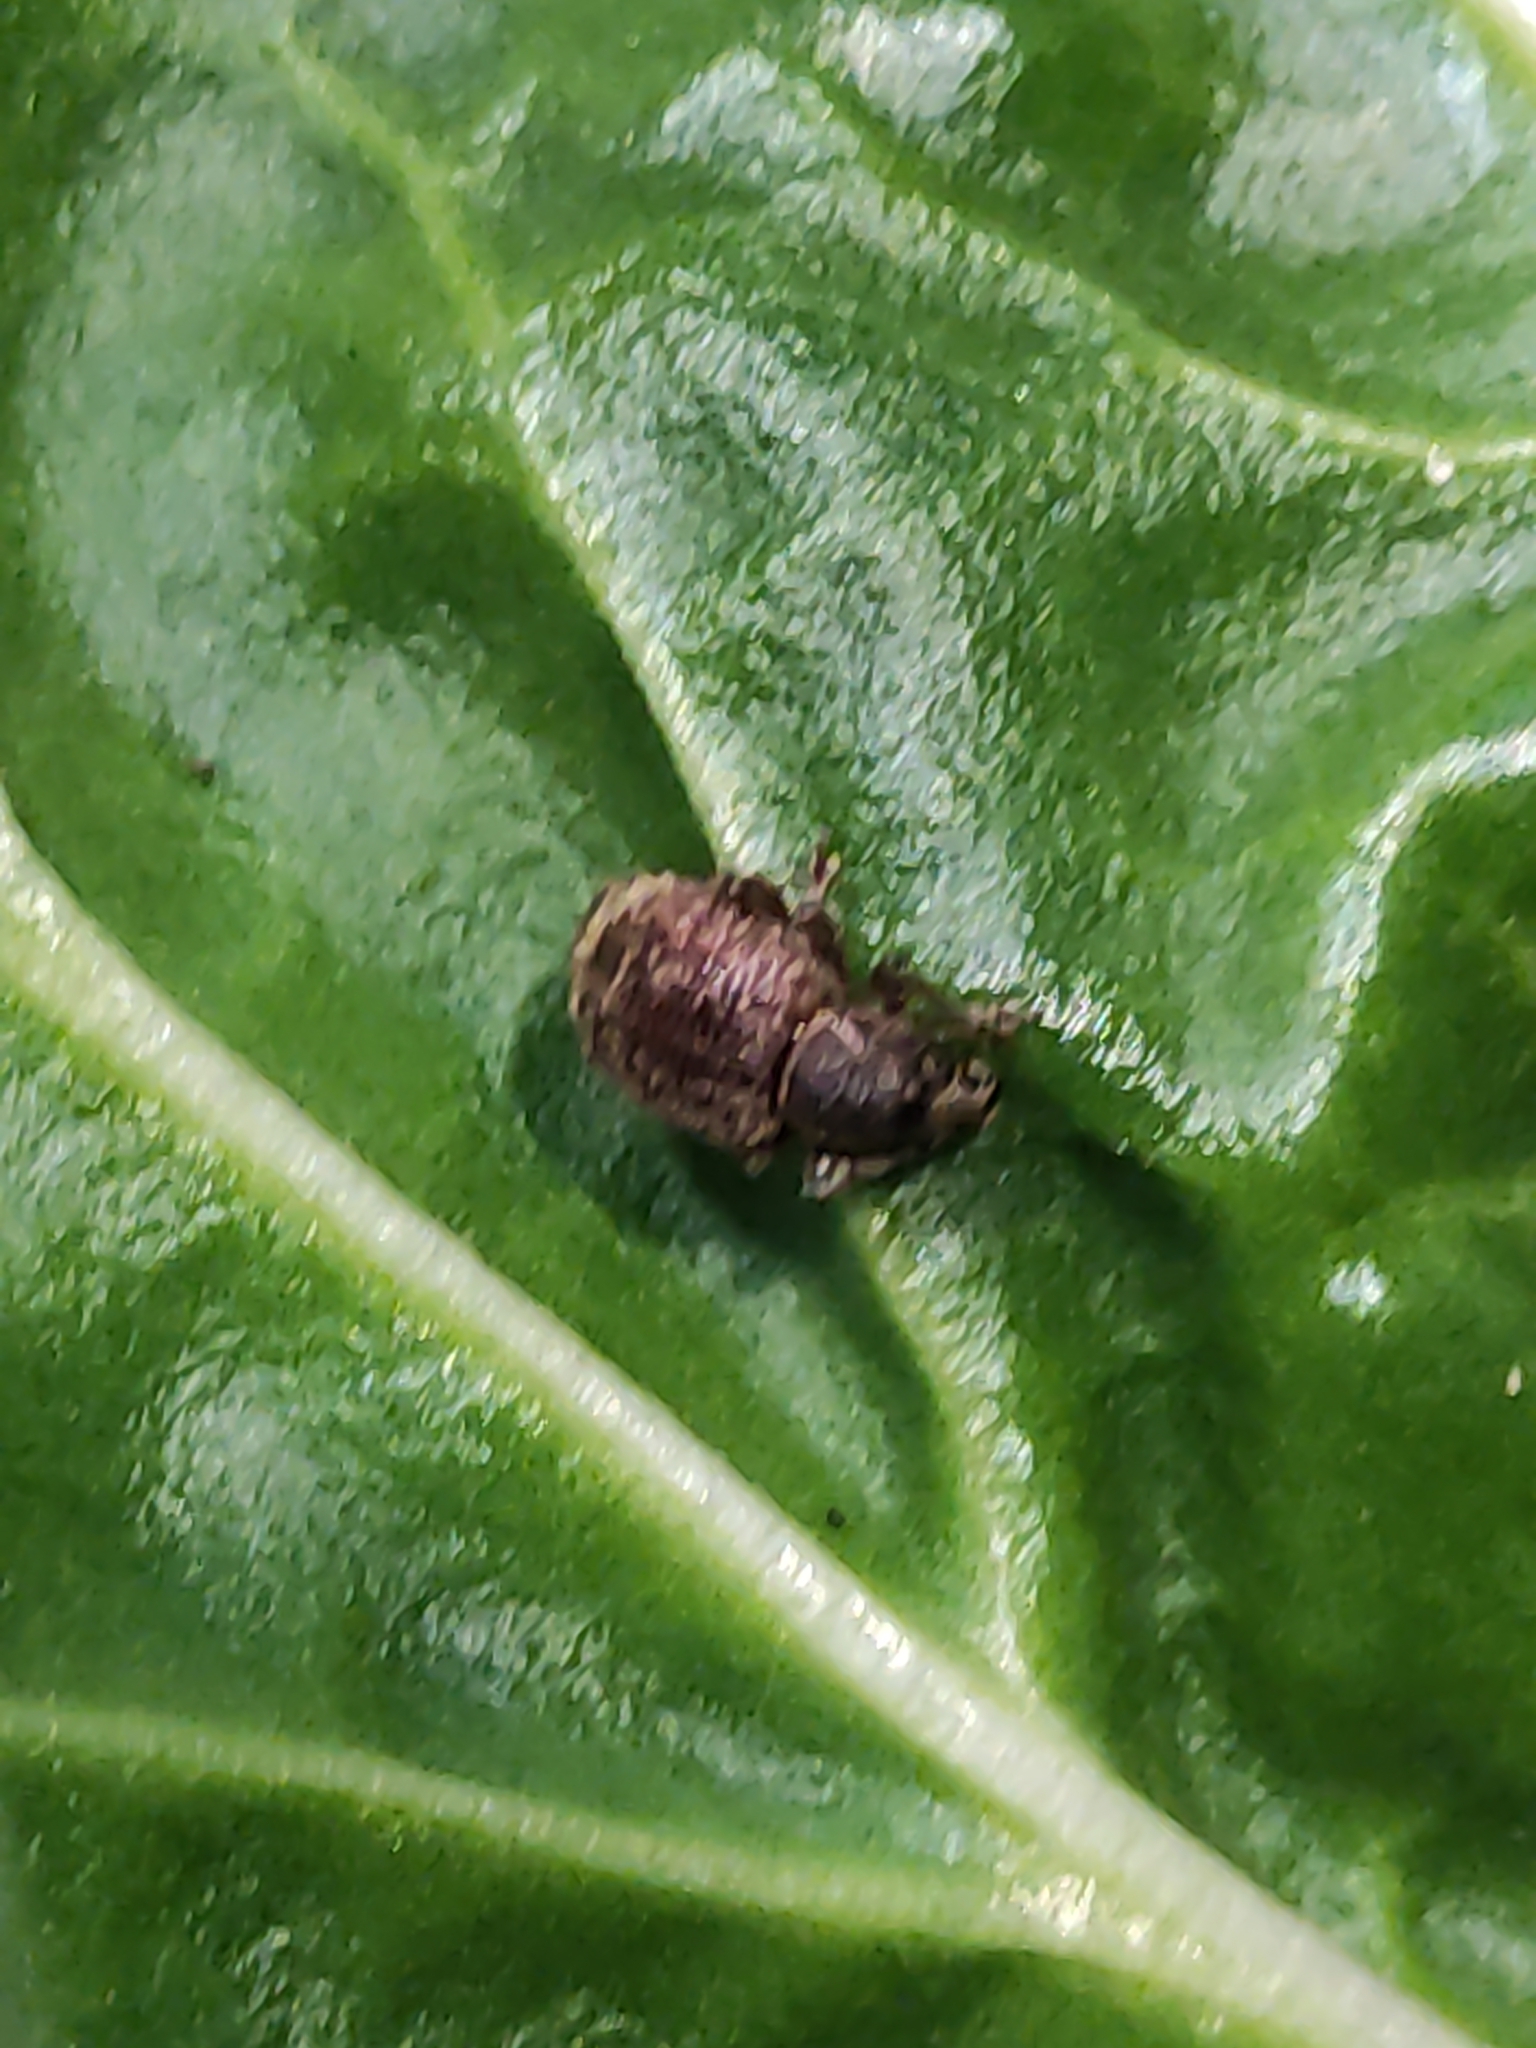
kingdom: Animalia
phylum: Arthropoda
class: Insecta
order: Coleoptera
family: Curculionidae
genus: Phlyctinus
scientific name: Phlyctinus callosus
